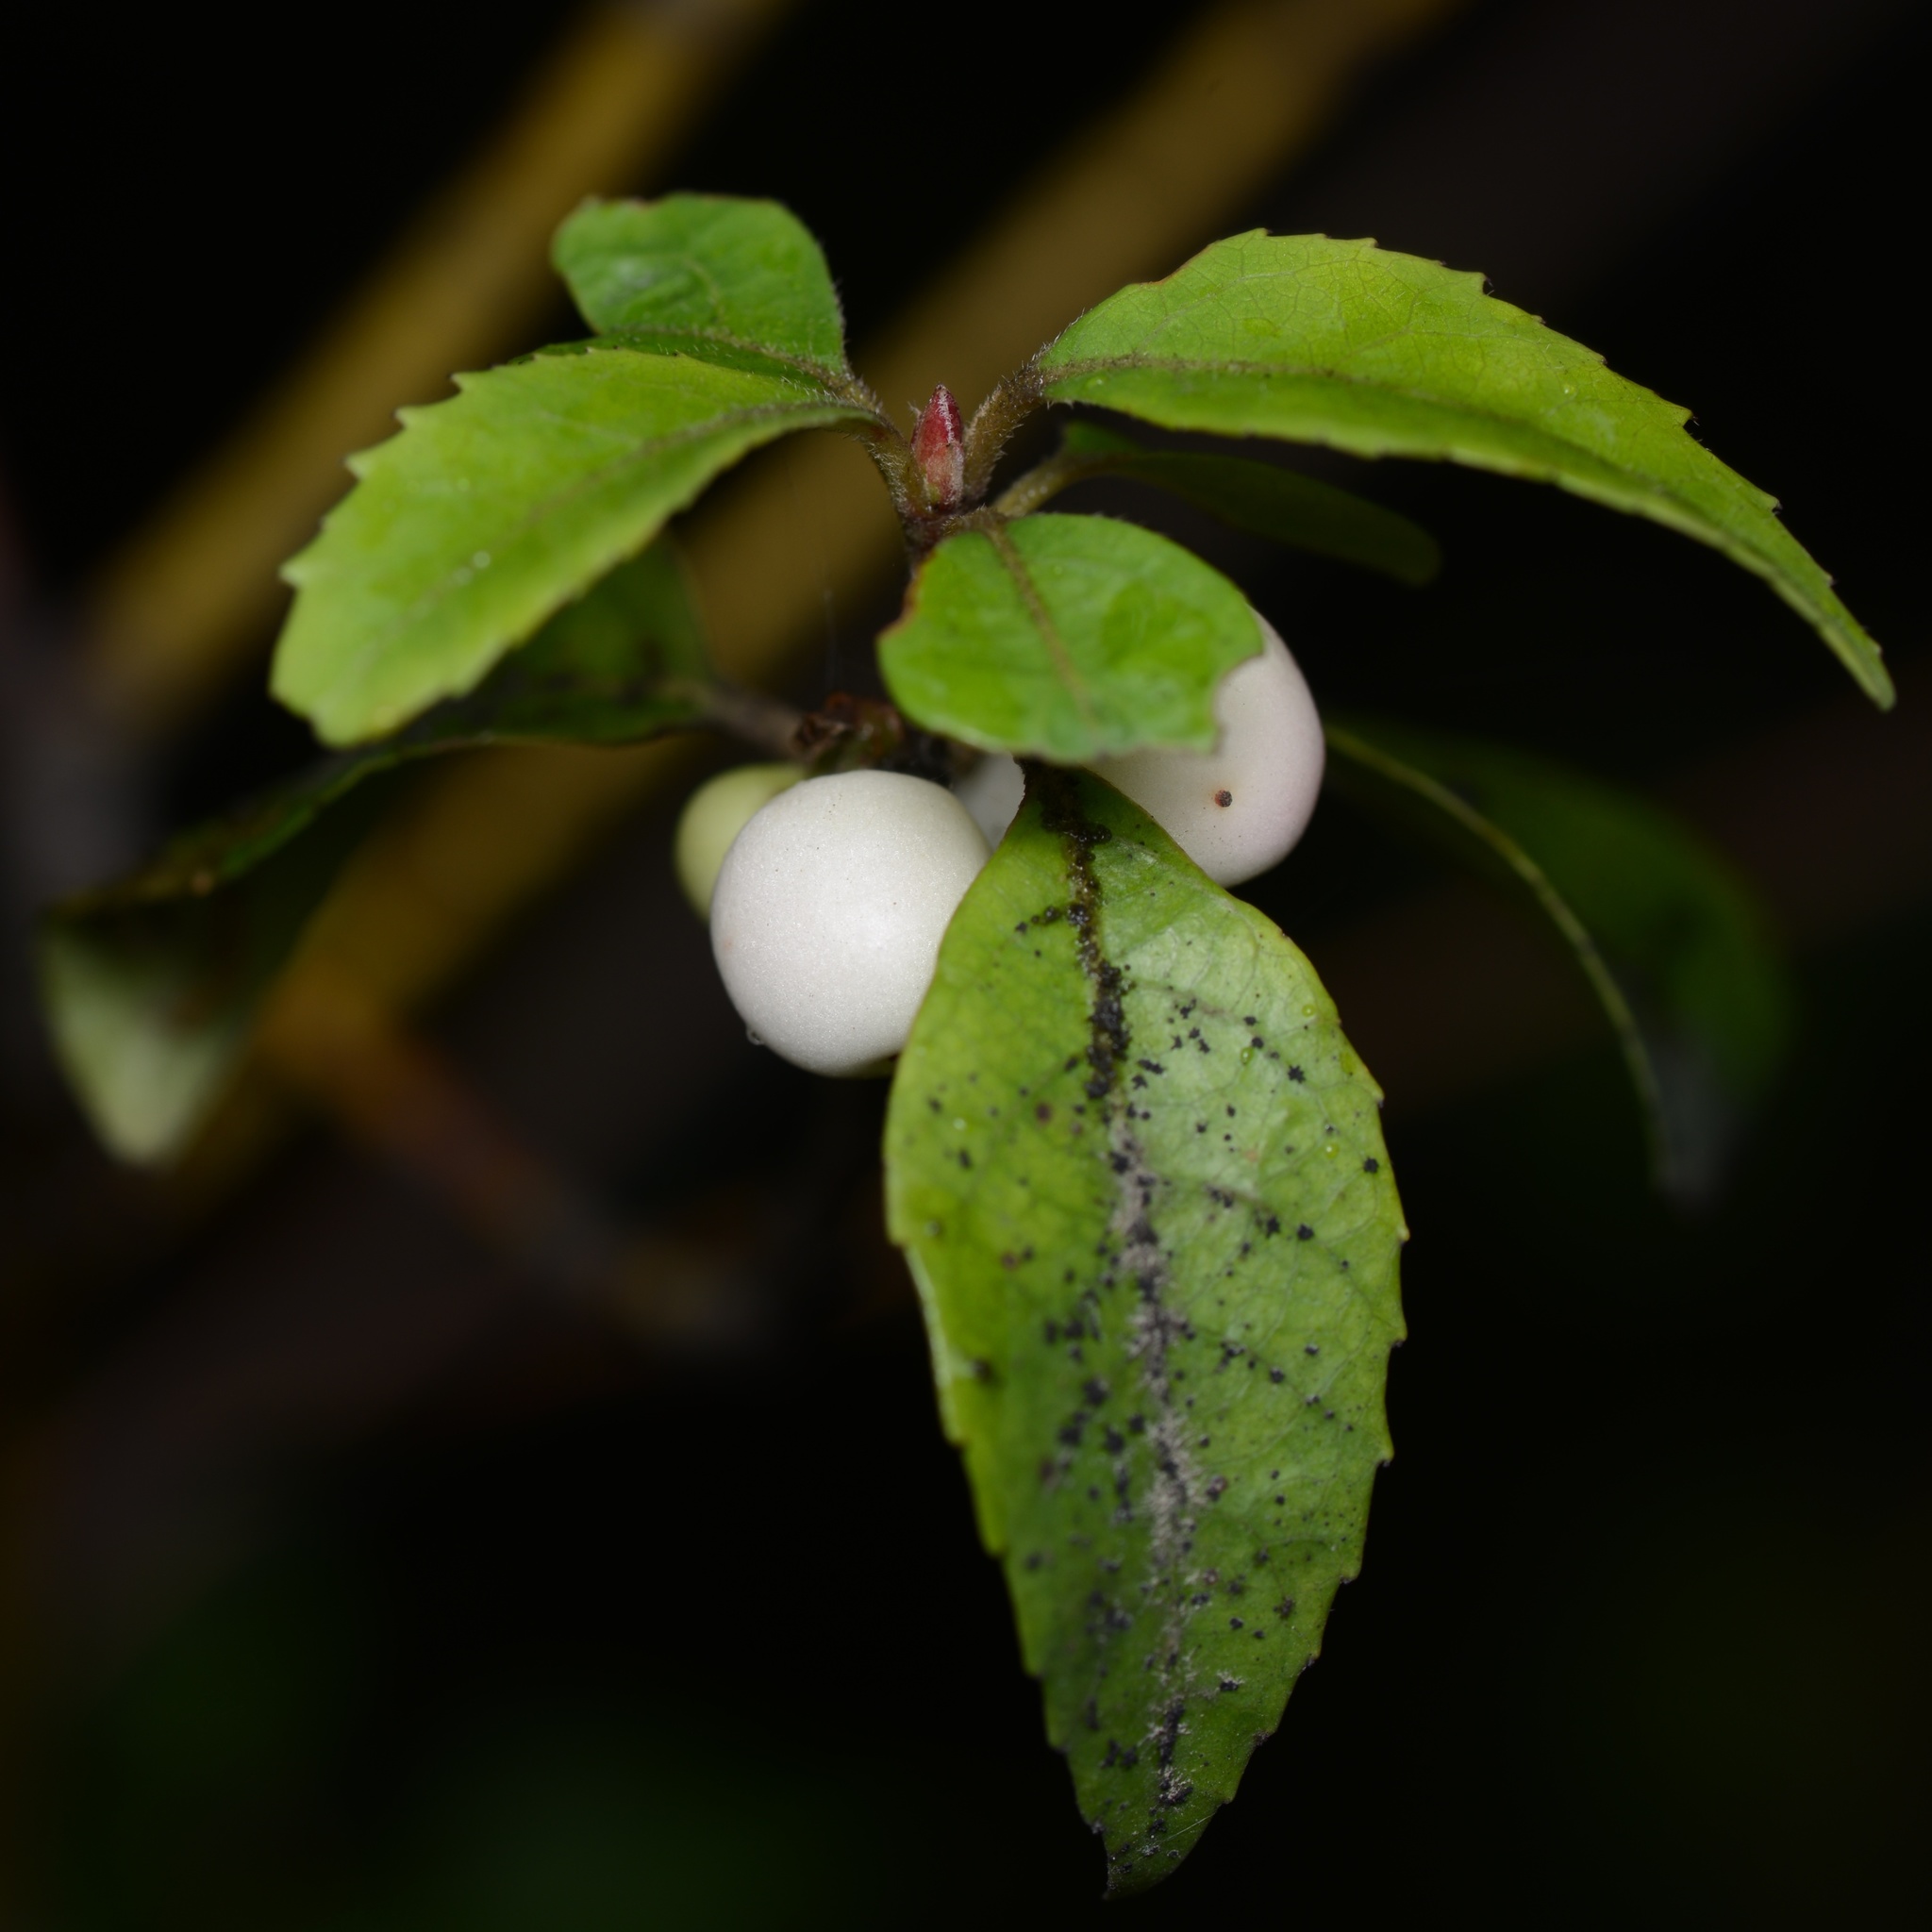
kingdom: Plantae
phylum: Tracheophyta
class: Magnoliopsida
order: Oxalidales
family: Elaeocarpaceae
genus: Aristotelia
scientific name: Aristotelia
